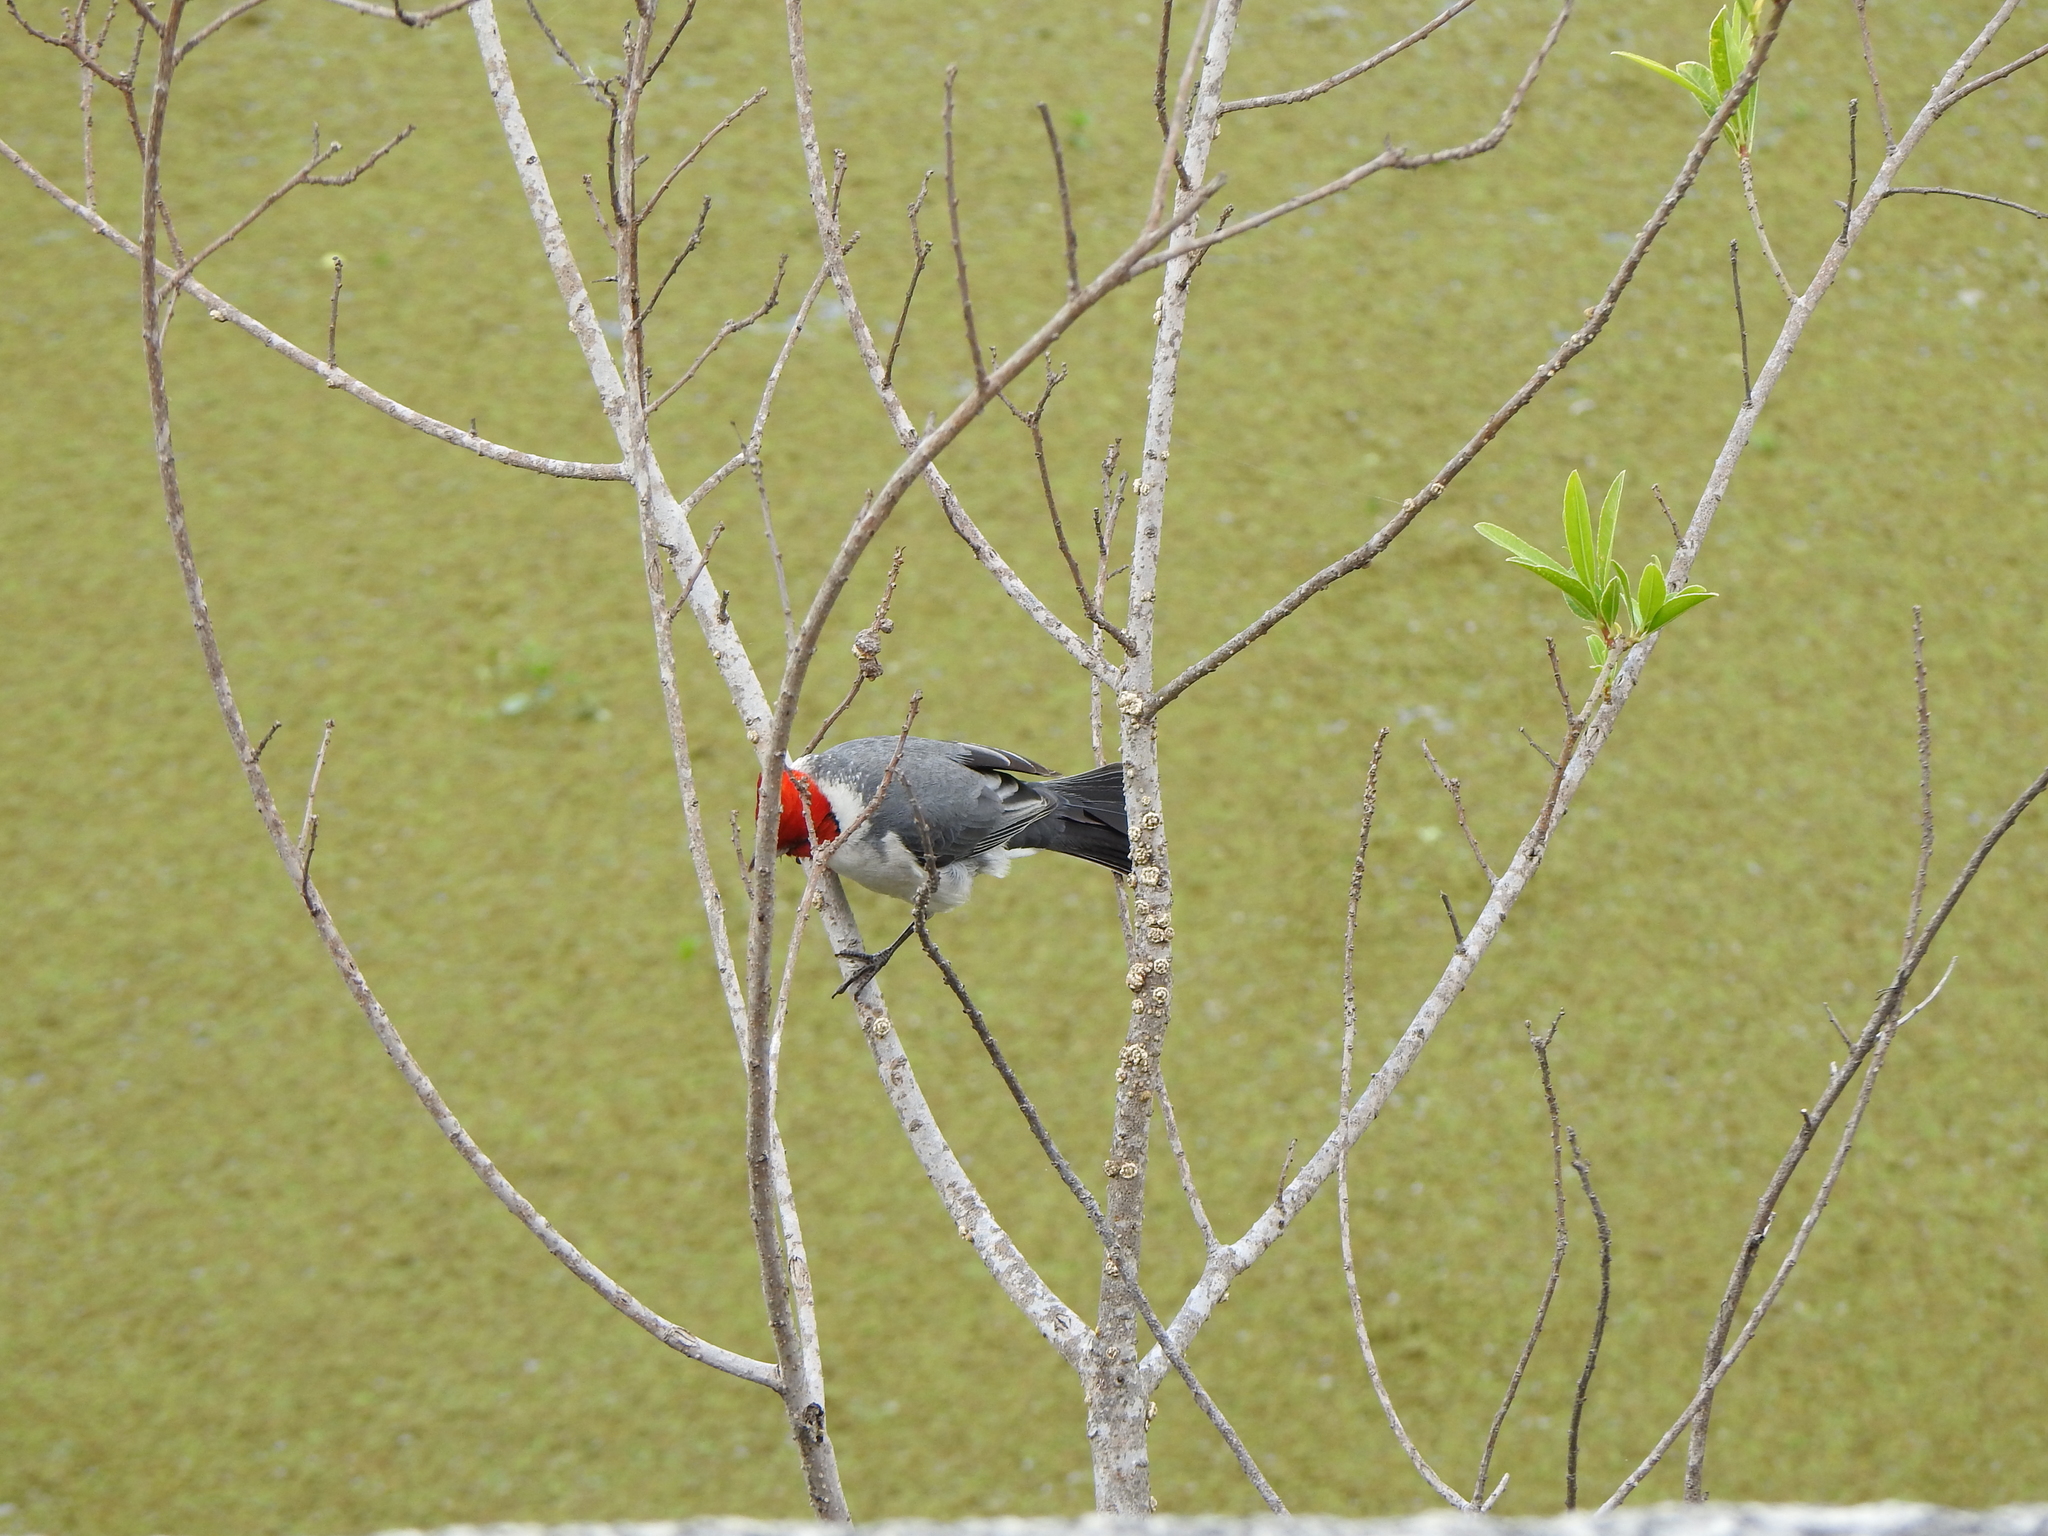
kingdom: Animalia
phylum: Chordata
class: Aves
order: Passeriformes
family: Thraupidae
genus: Paroaria
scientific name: Paroaria coronata
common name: Red-crested cardinal
